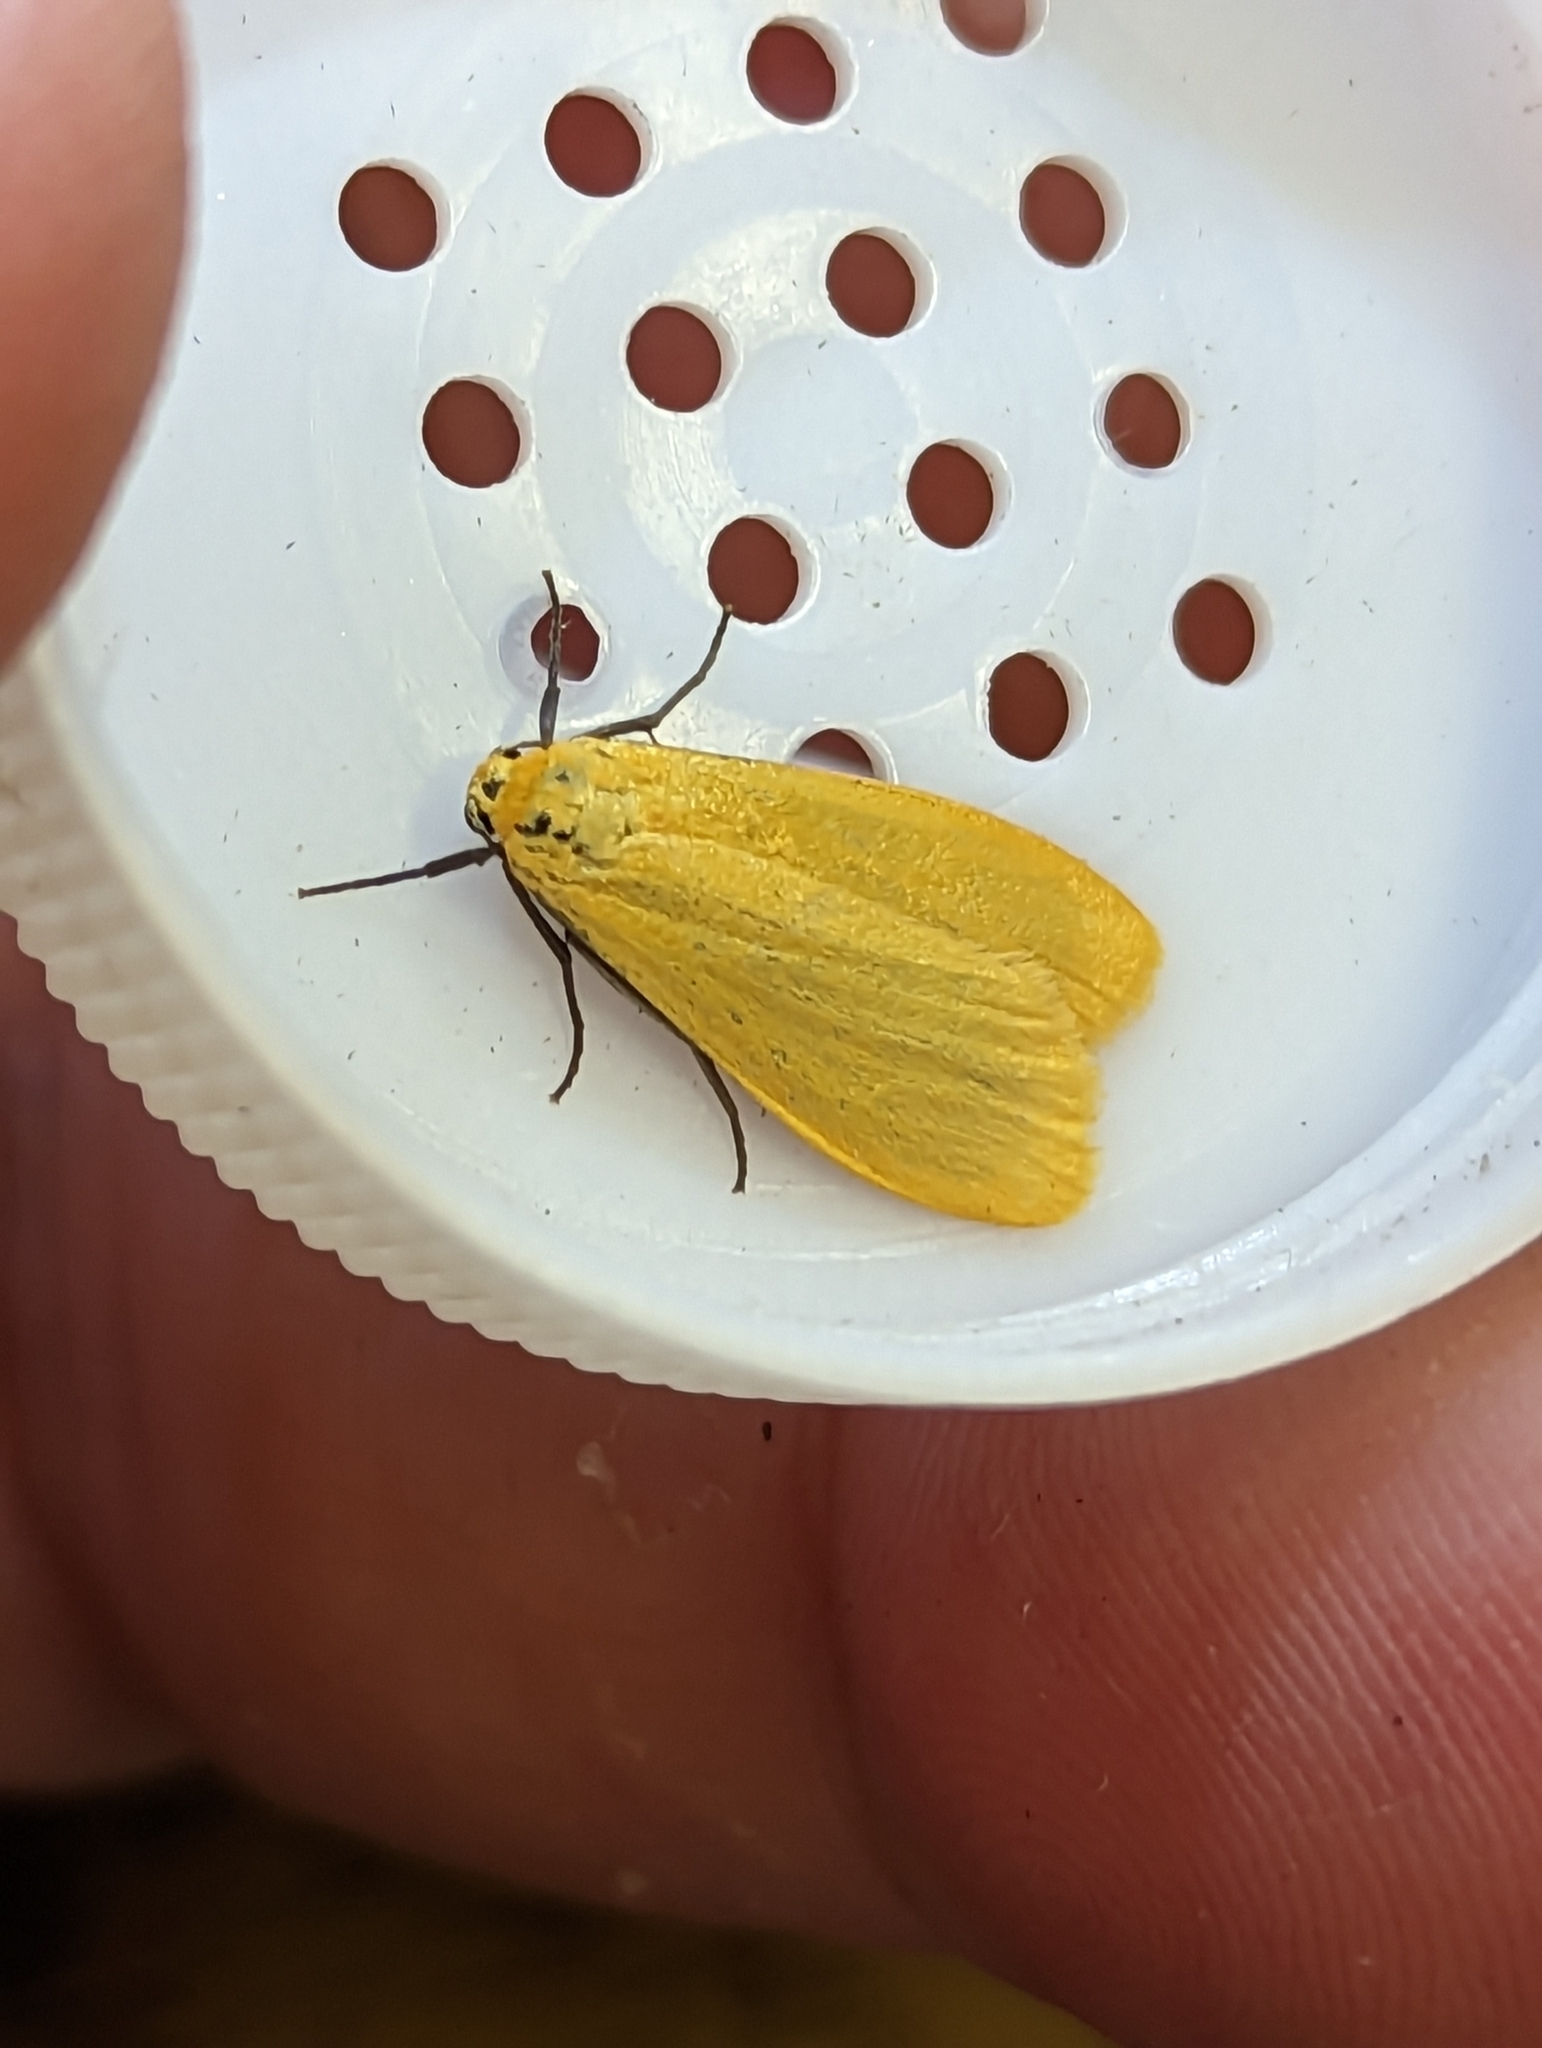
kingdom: Animalia
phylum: Arthropoda
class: Insecta
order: Lepidoptera
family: Erebidae
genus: Wittia
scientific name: Wittia sororcula
